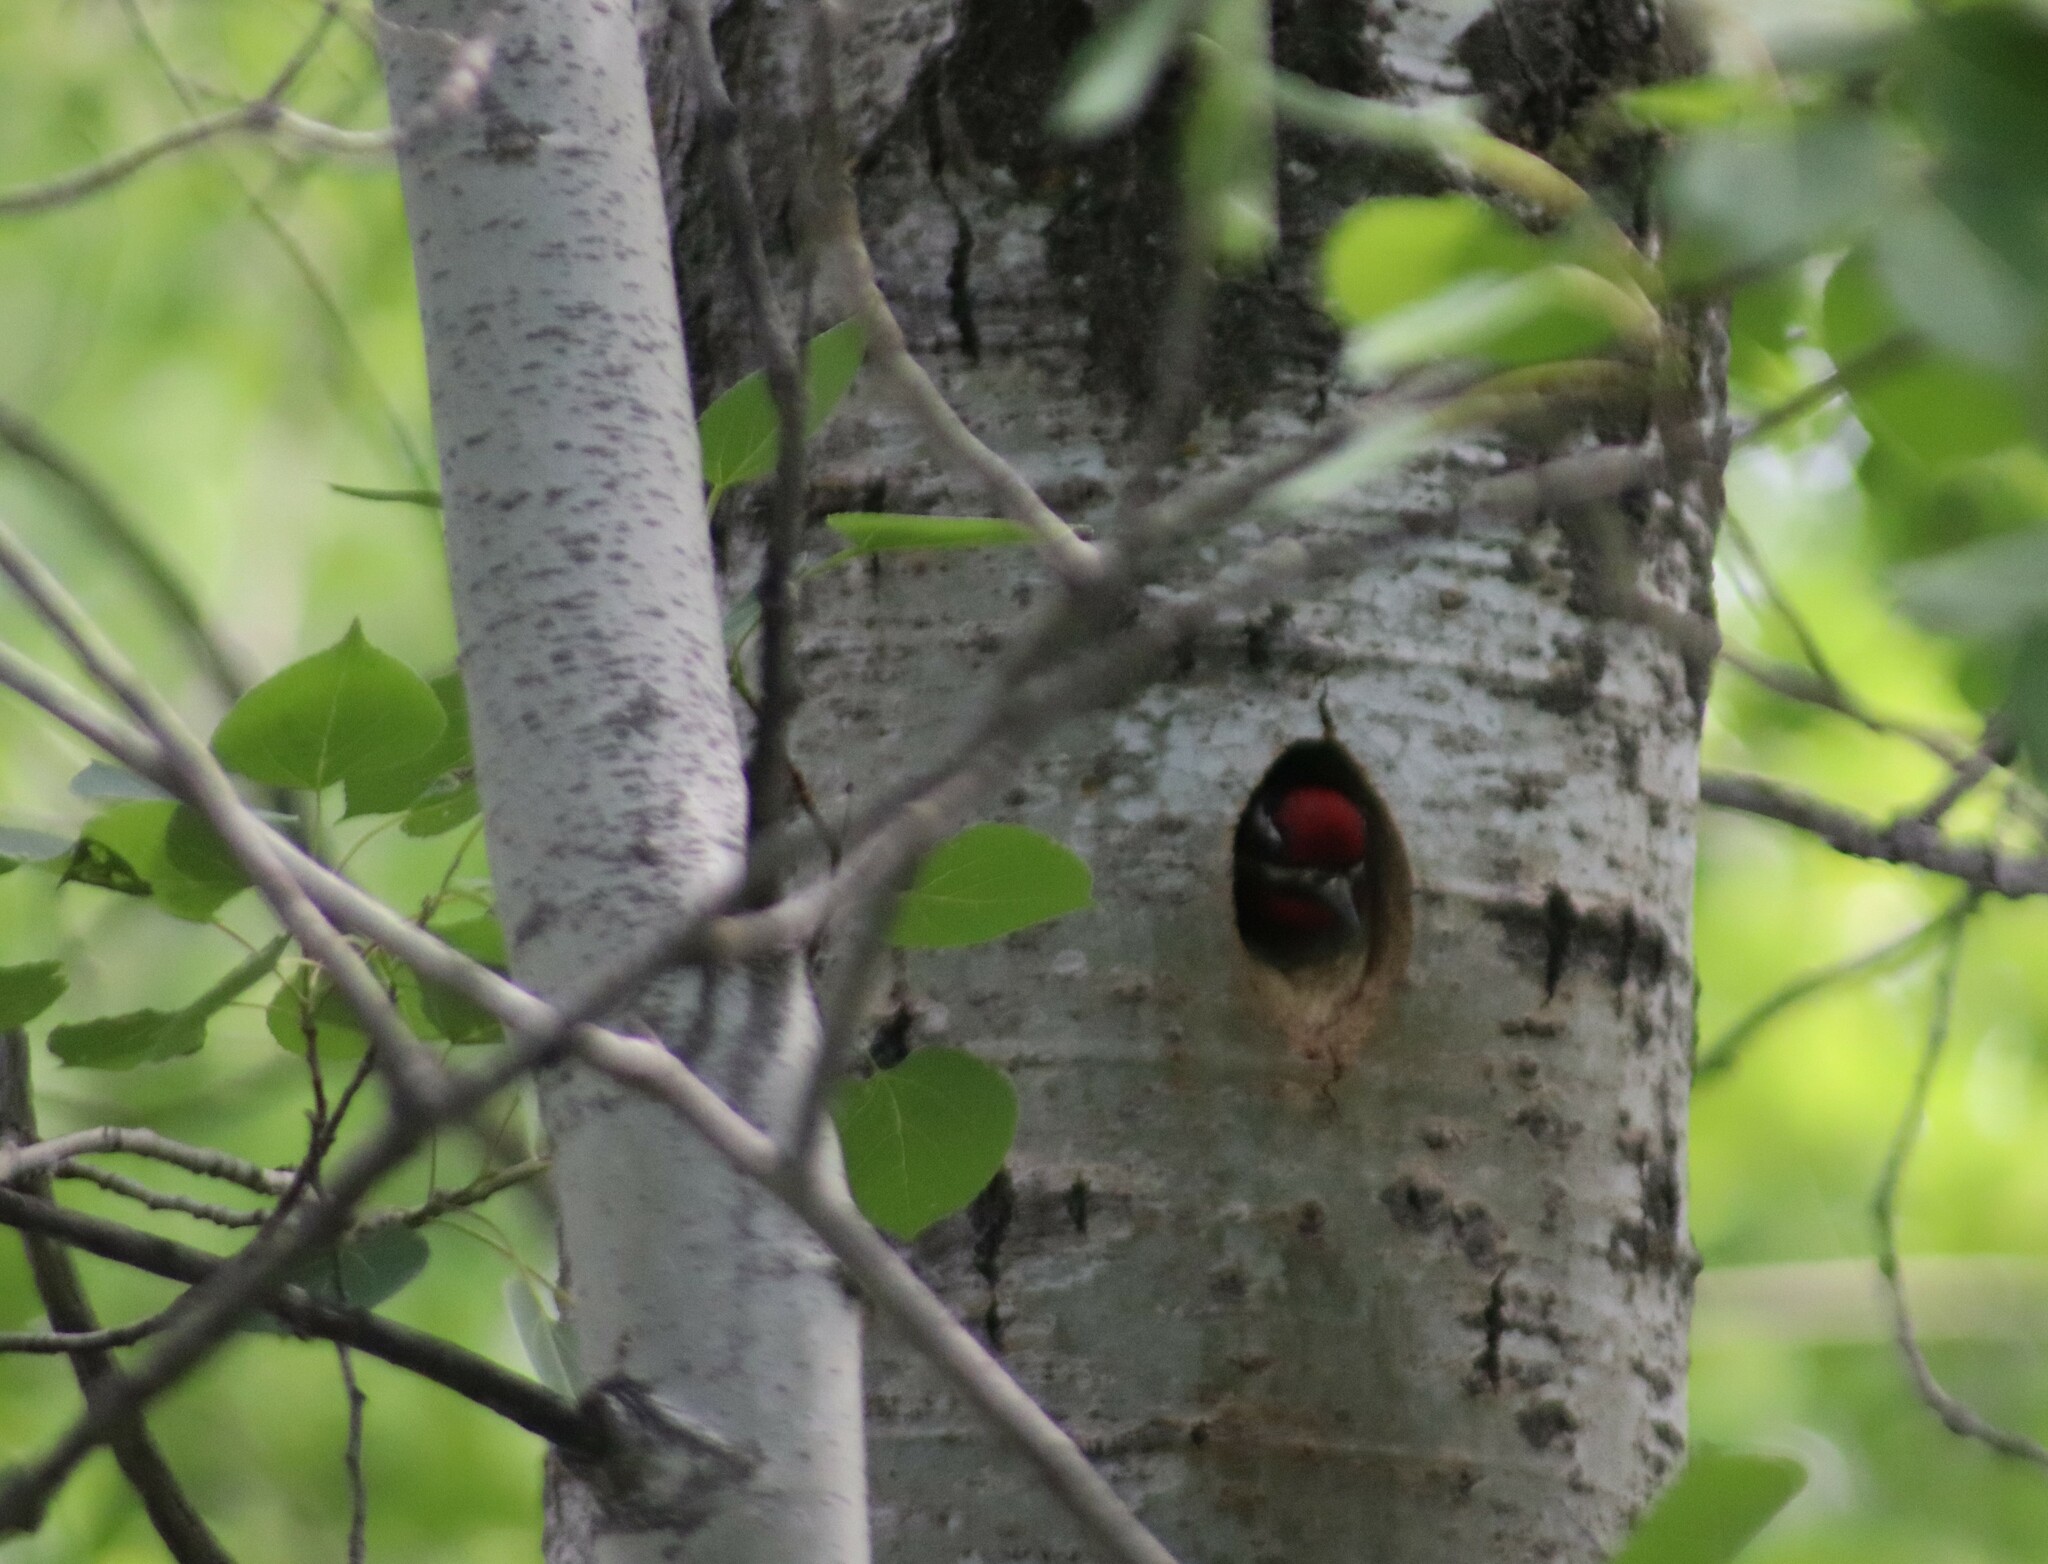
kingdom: Animalia
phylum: Chordata
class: Aves
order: Piciformes
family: Picidae
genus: Sphyrapicus
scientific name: Sphyrapicus varius
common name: Yellow-bellied sapsucker
